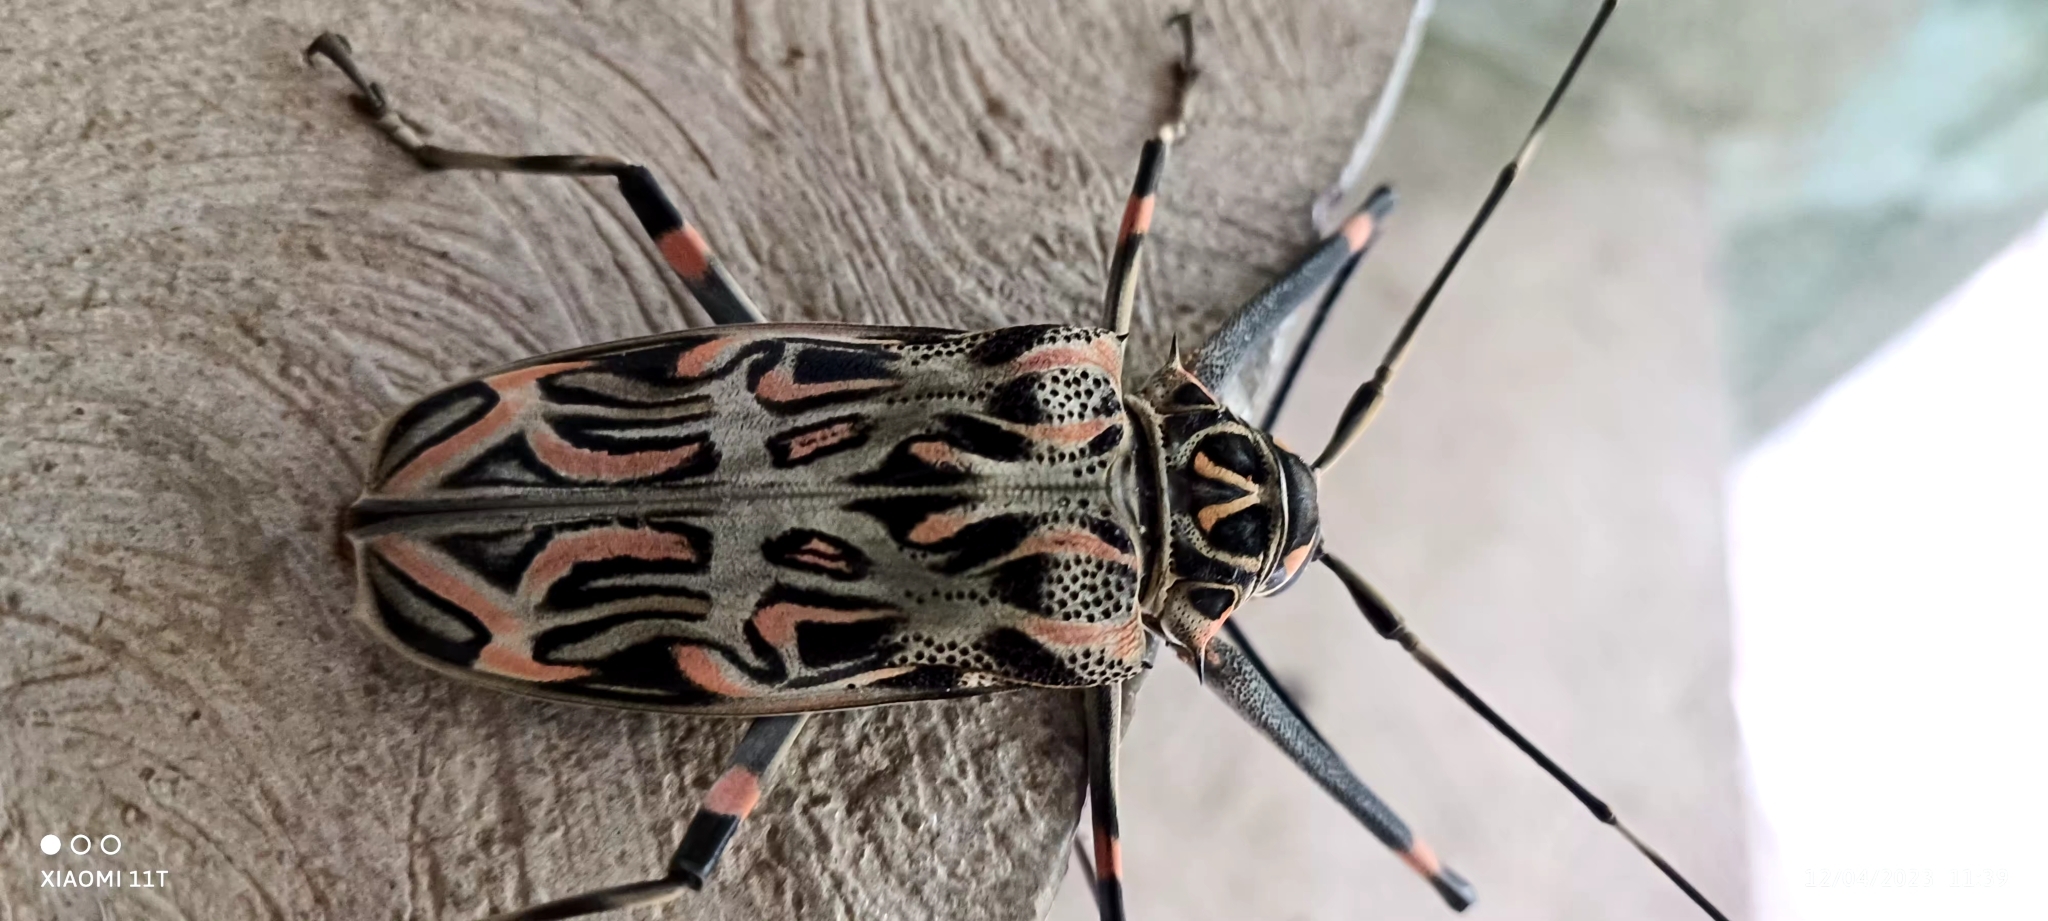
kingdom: Animalia
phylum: Arthropoda
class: Insecta
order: Coleoptera
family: Cerambycidae
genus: Acrocinus
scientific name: Acrocinus longimanus
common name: Arlequin
